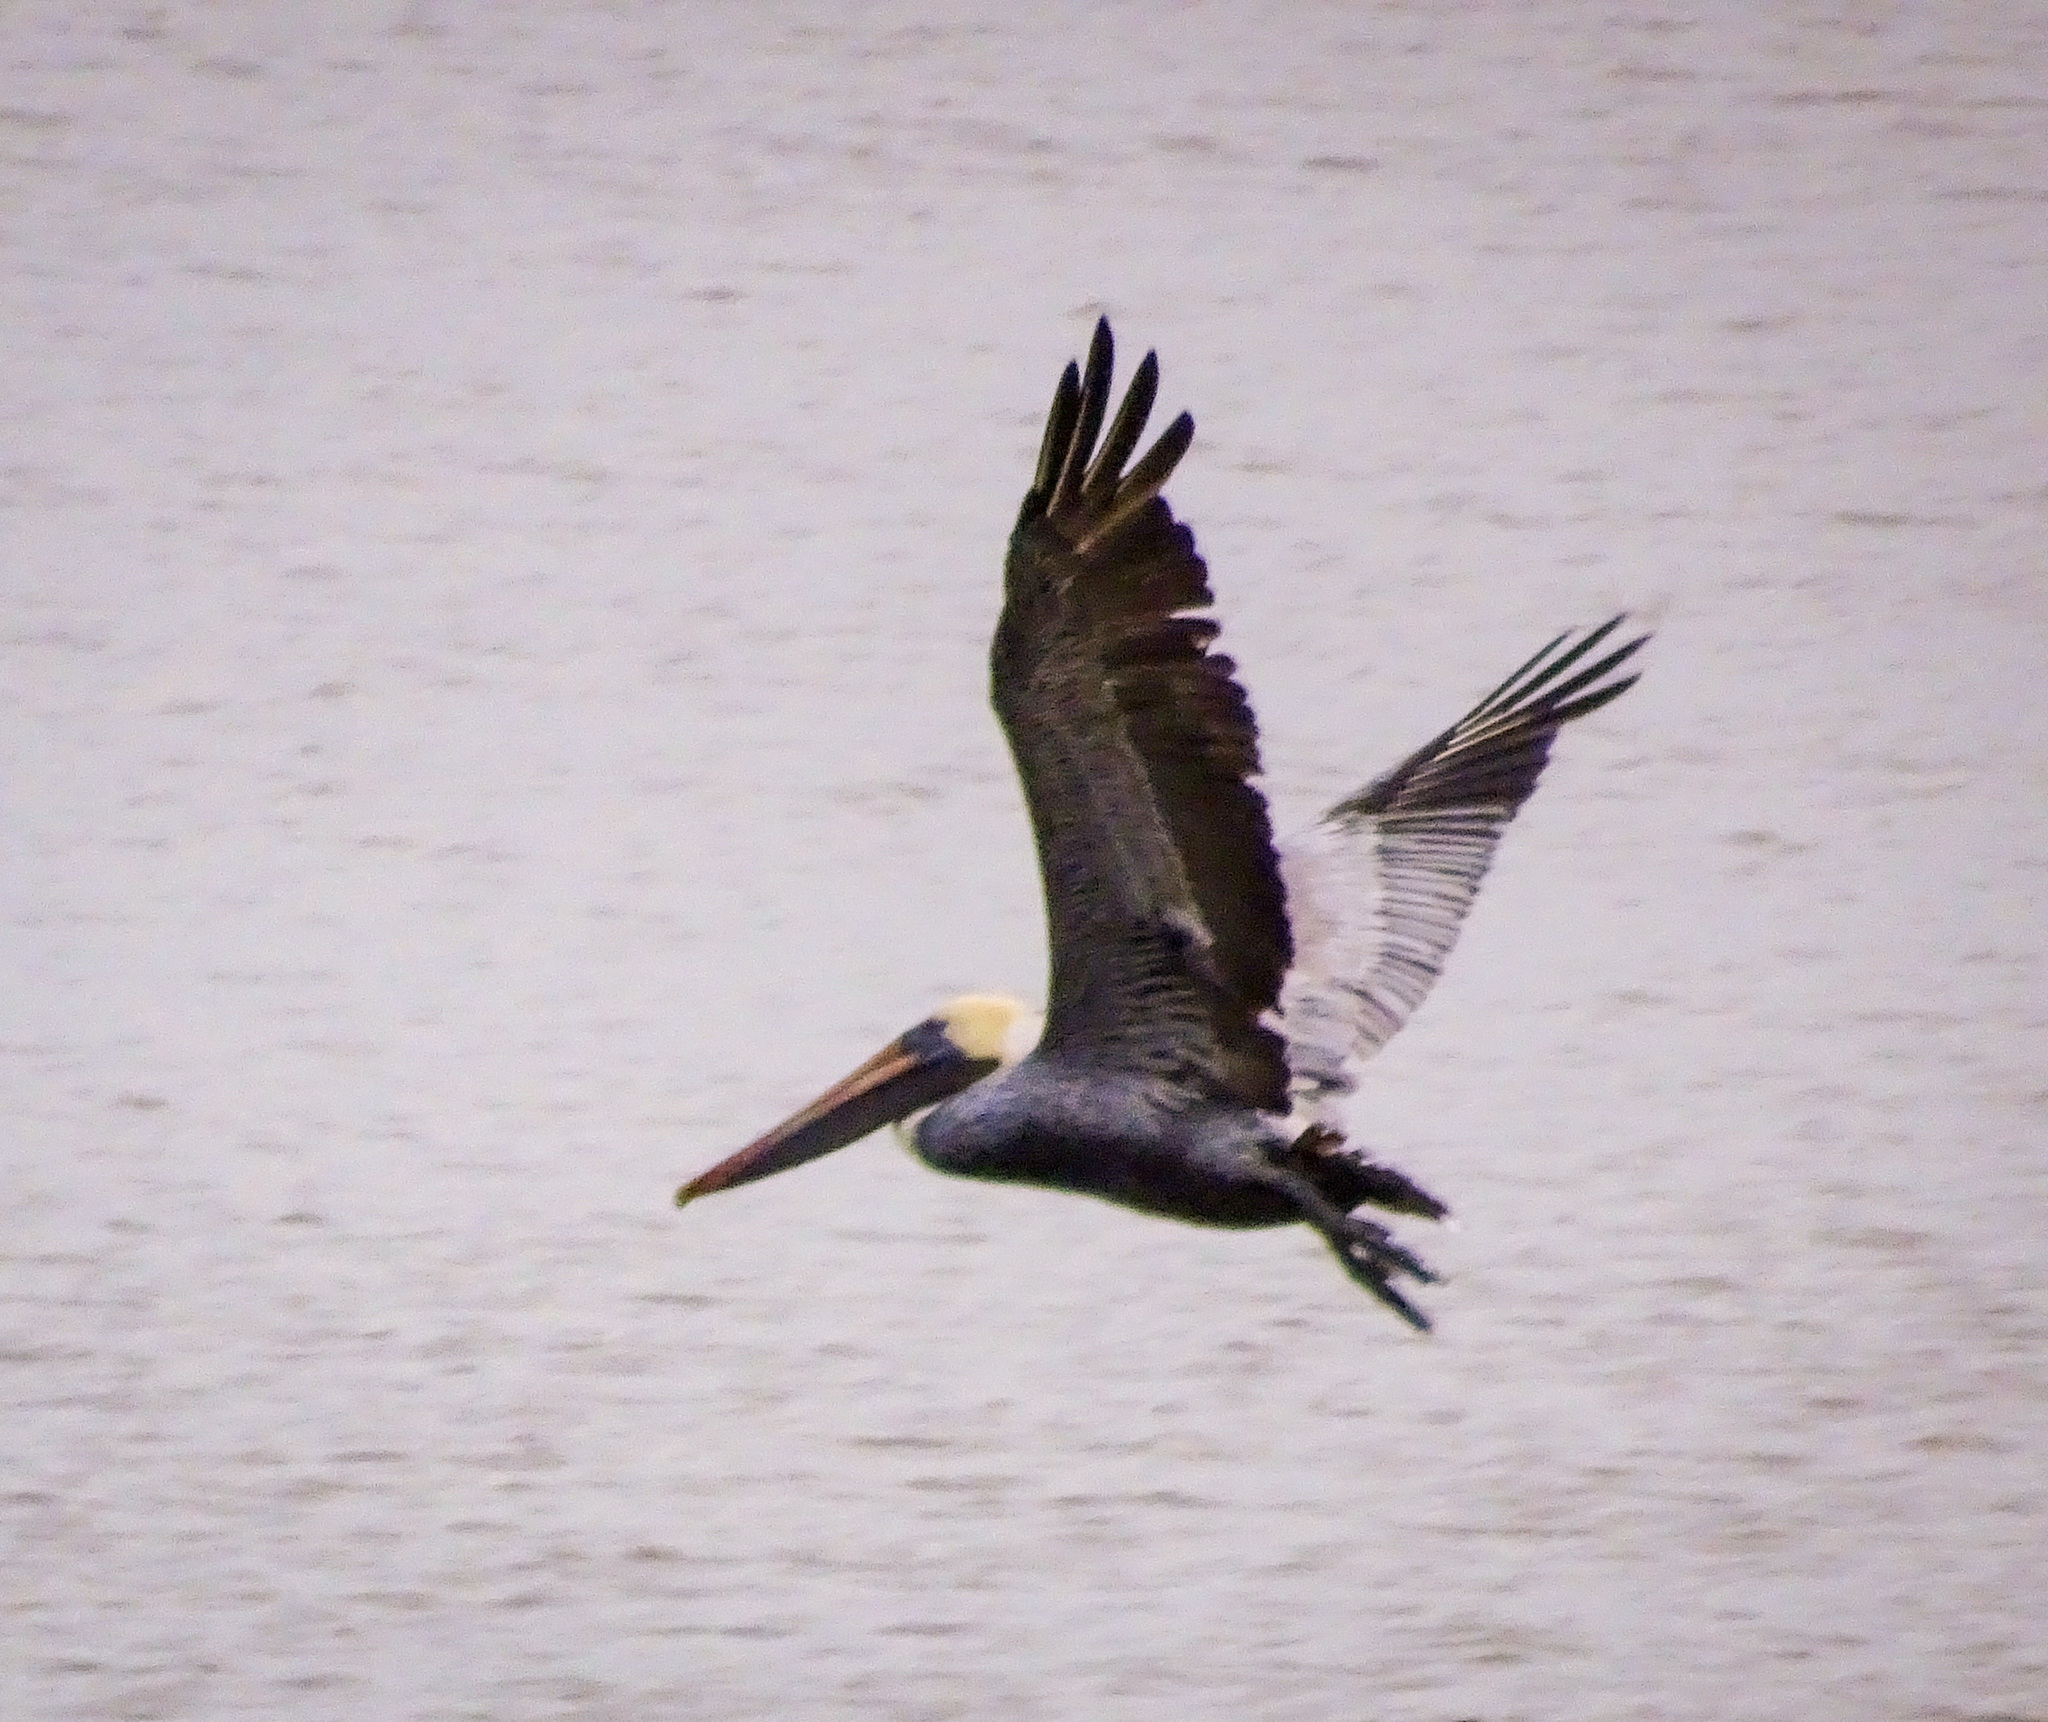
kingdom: Animalia
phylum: Chordata
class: Aves
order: Pelecaniformes
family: Pelecanidae
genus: Pelecanus
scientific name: Pelecanus occidentalis
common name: Brown pelican
